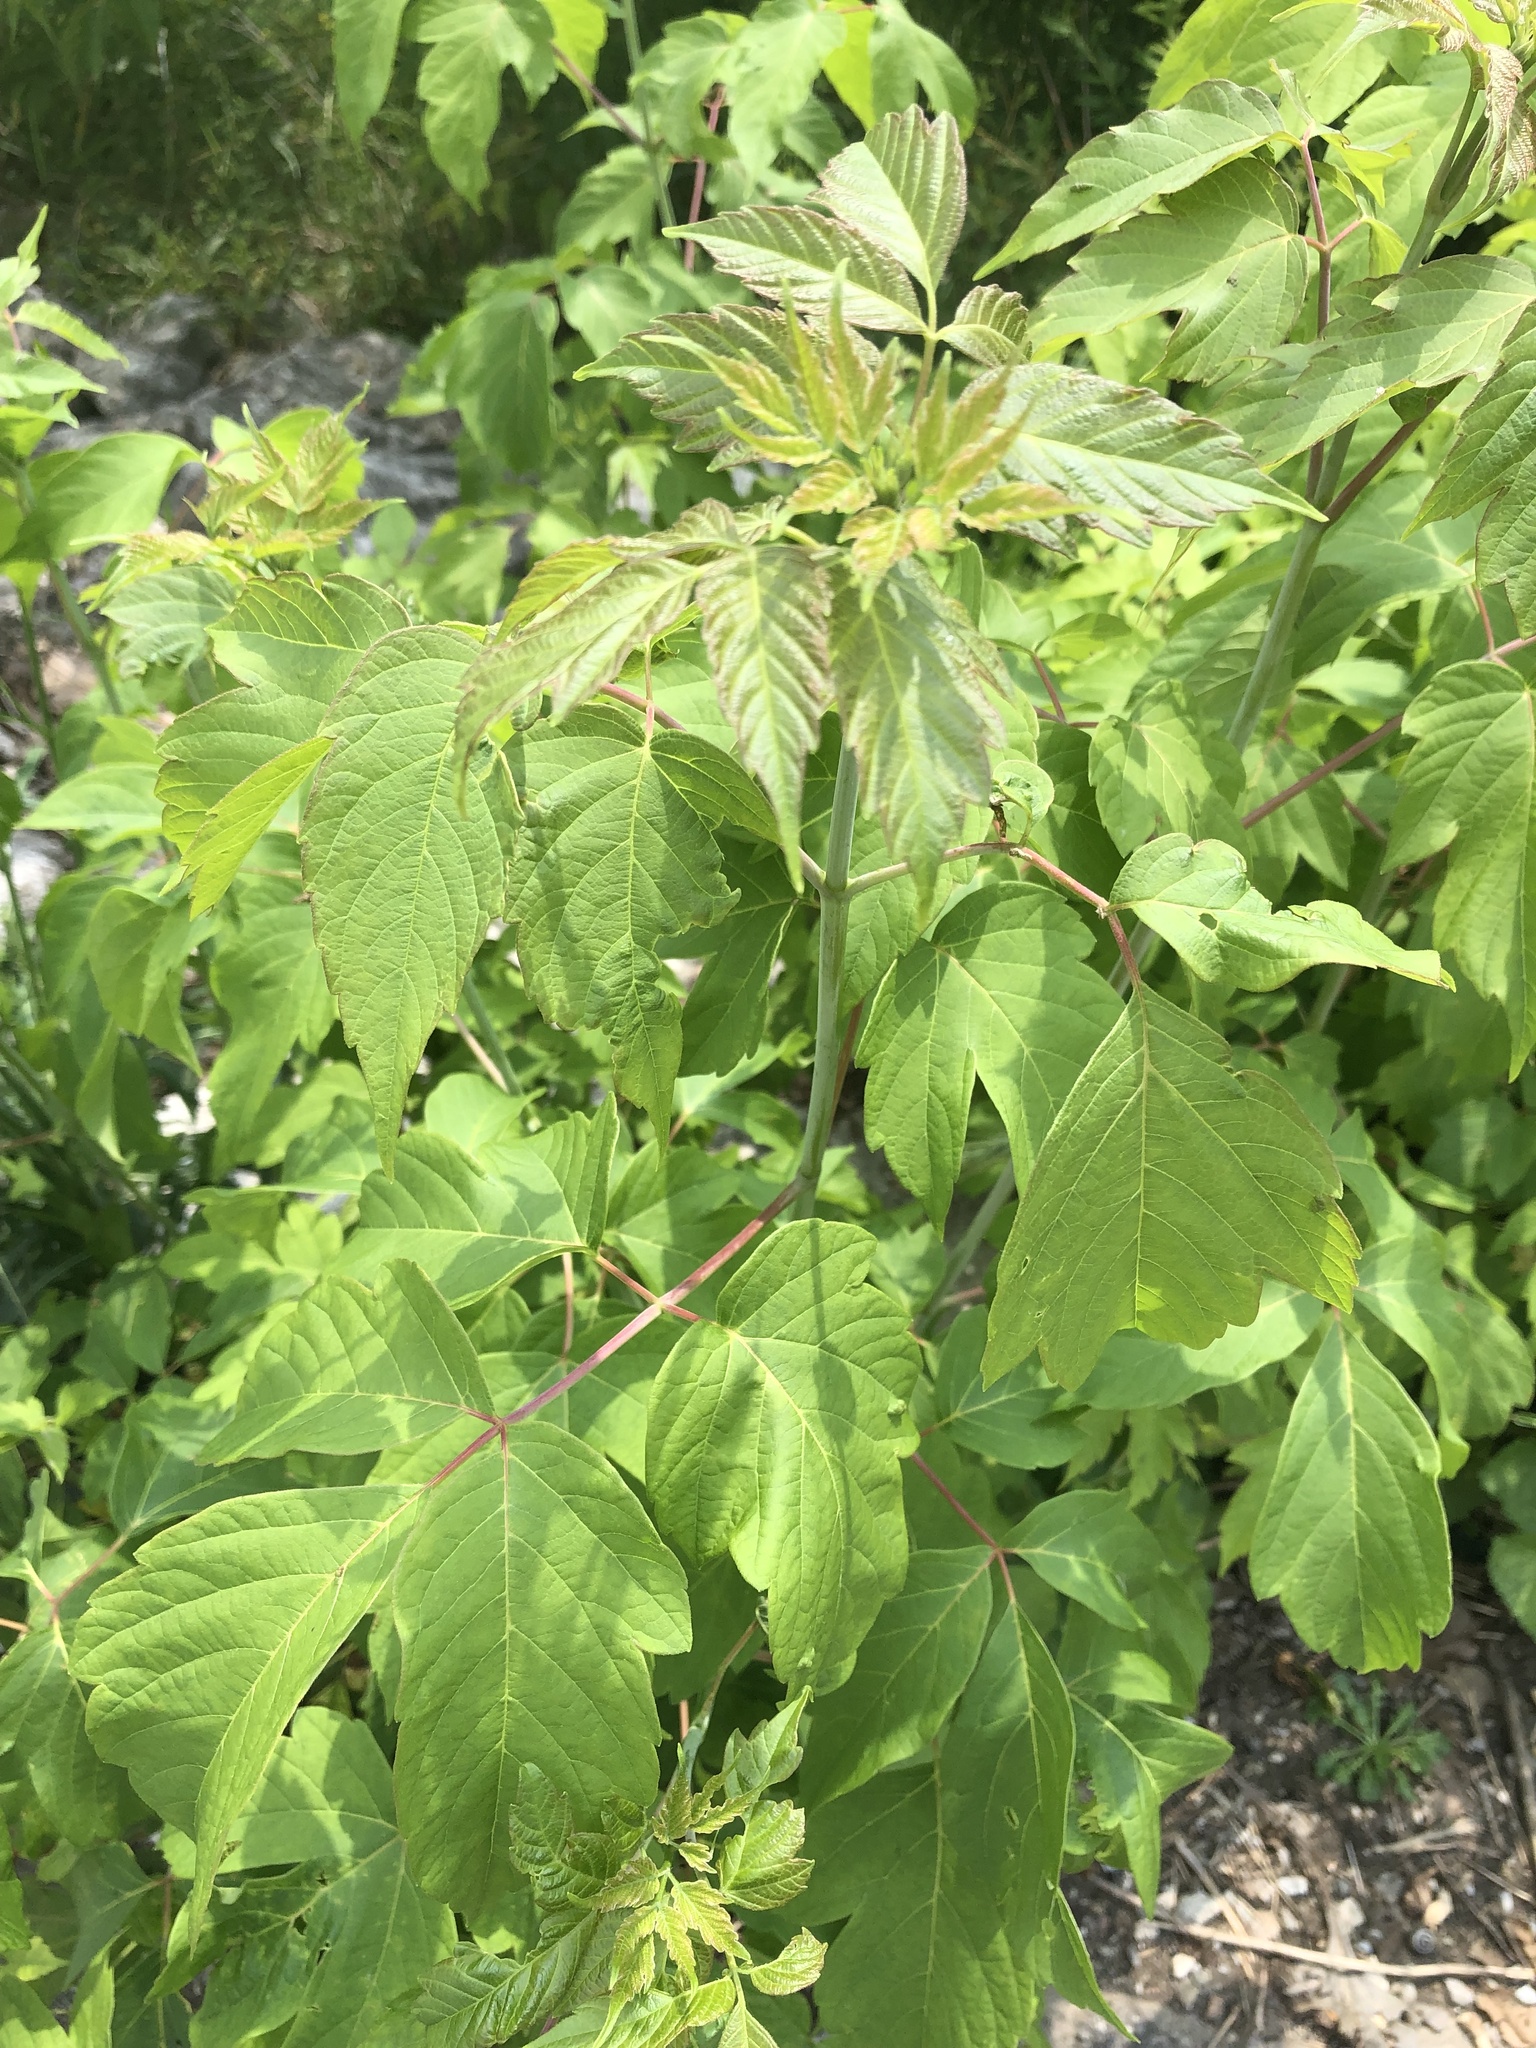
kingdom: Plantae
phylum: Tracheophyta
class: Magnoliopsida
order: Sapindales
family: Sapindaceae
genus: Acer
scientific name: Acer negundo
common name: Ashleaf maple
